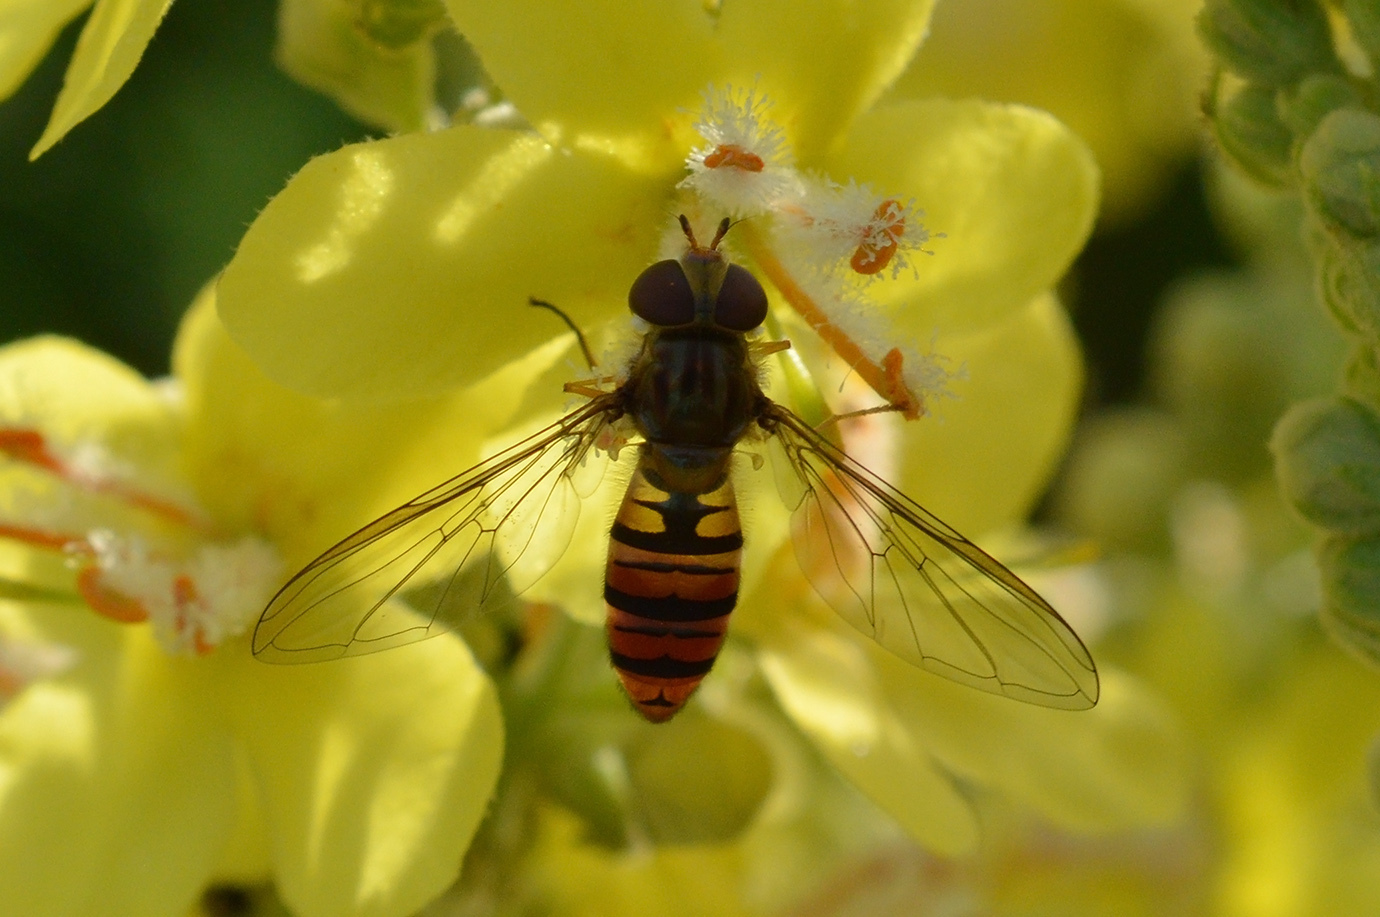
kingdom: Animalia
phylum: Arthropoda
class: Insecta
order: Diptera
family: Syrphidae
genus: Episyrphus
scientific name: Episyrphus balteatus
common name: Marmalade hoverfly
